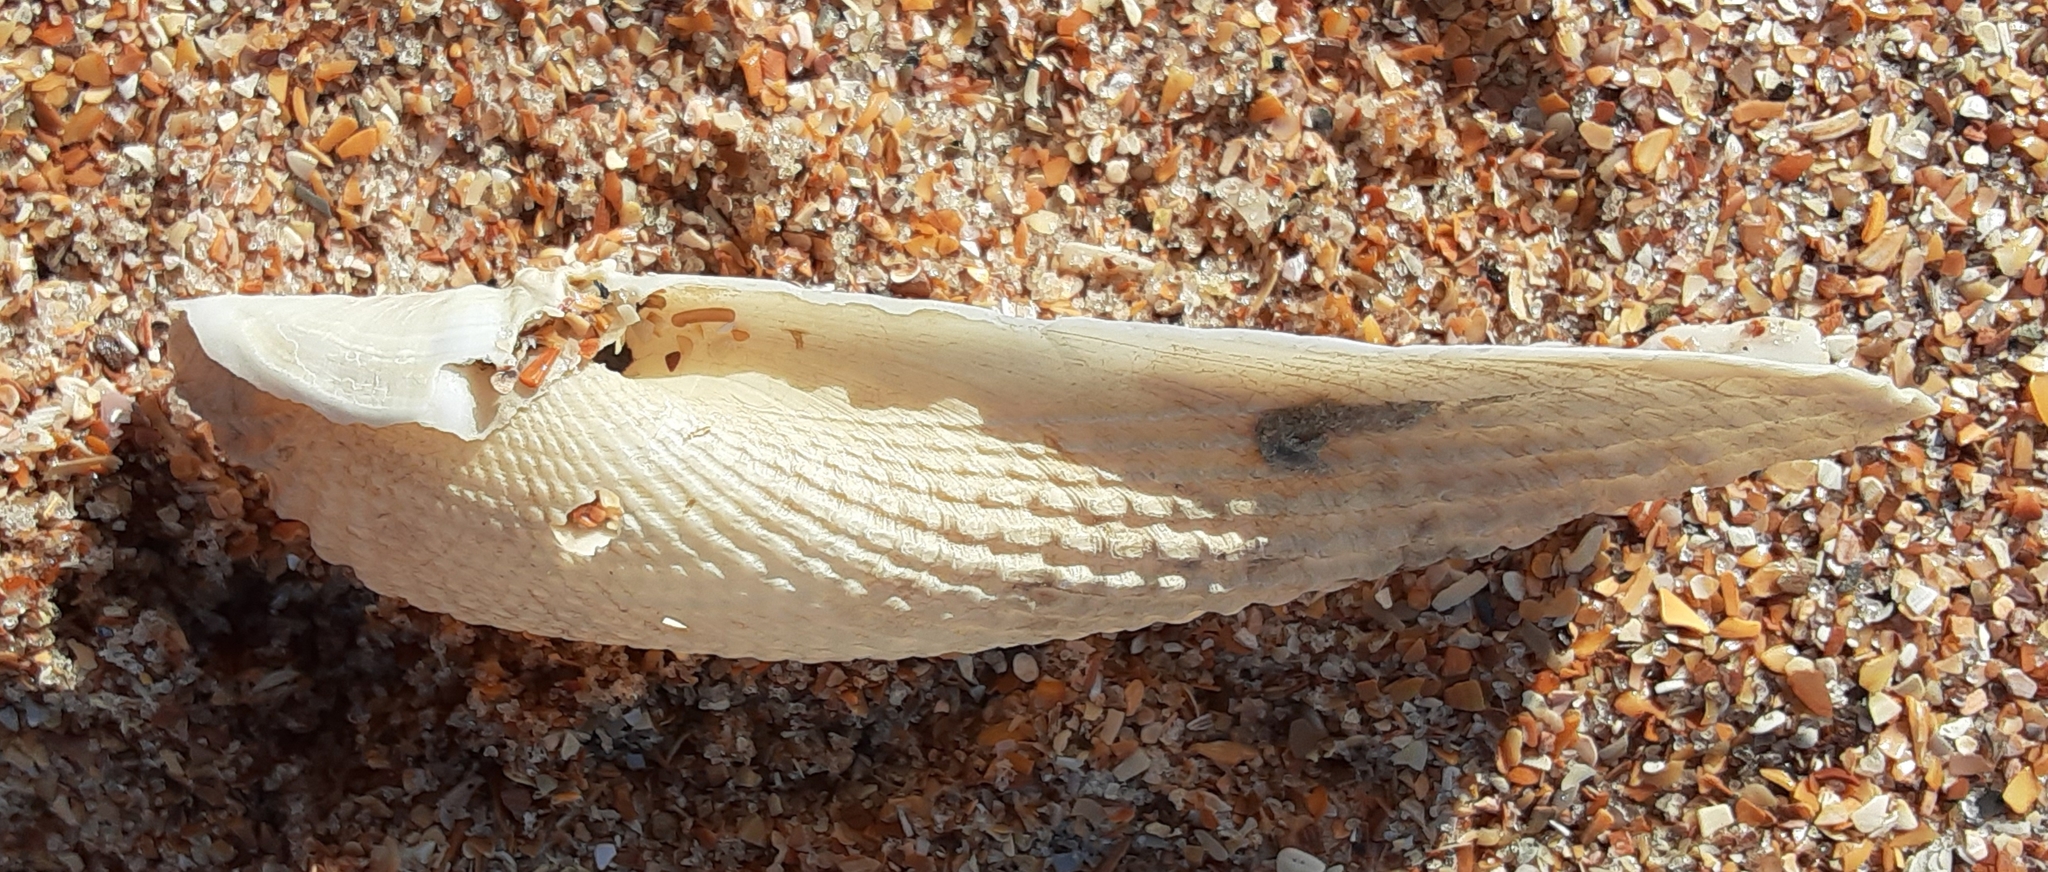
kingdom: Animalia
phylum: Mollusca
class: Bivalvia
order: Myida
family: Pholadidae
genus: Cyrtopleura
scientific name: Cyrtopleura costata
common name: Angel wing
